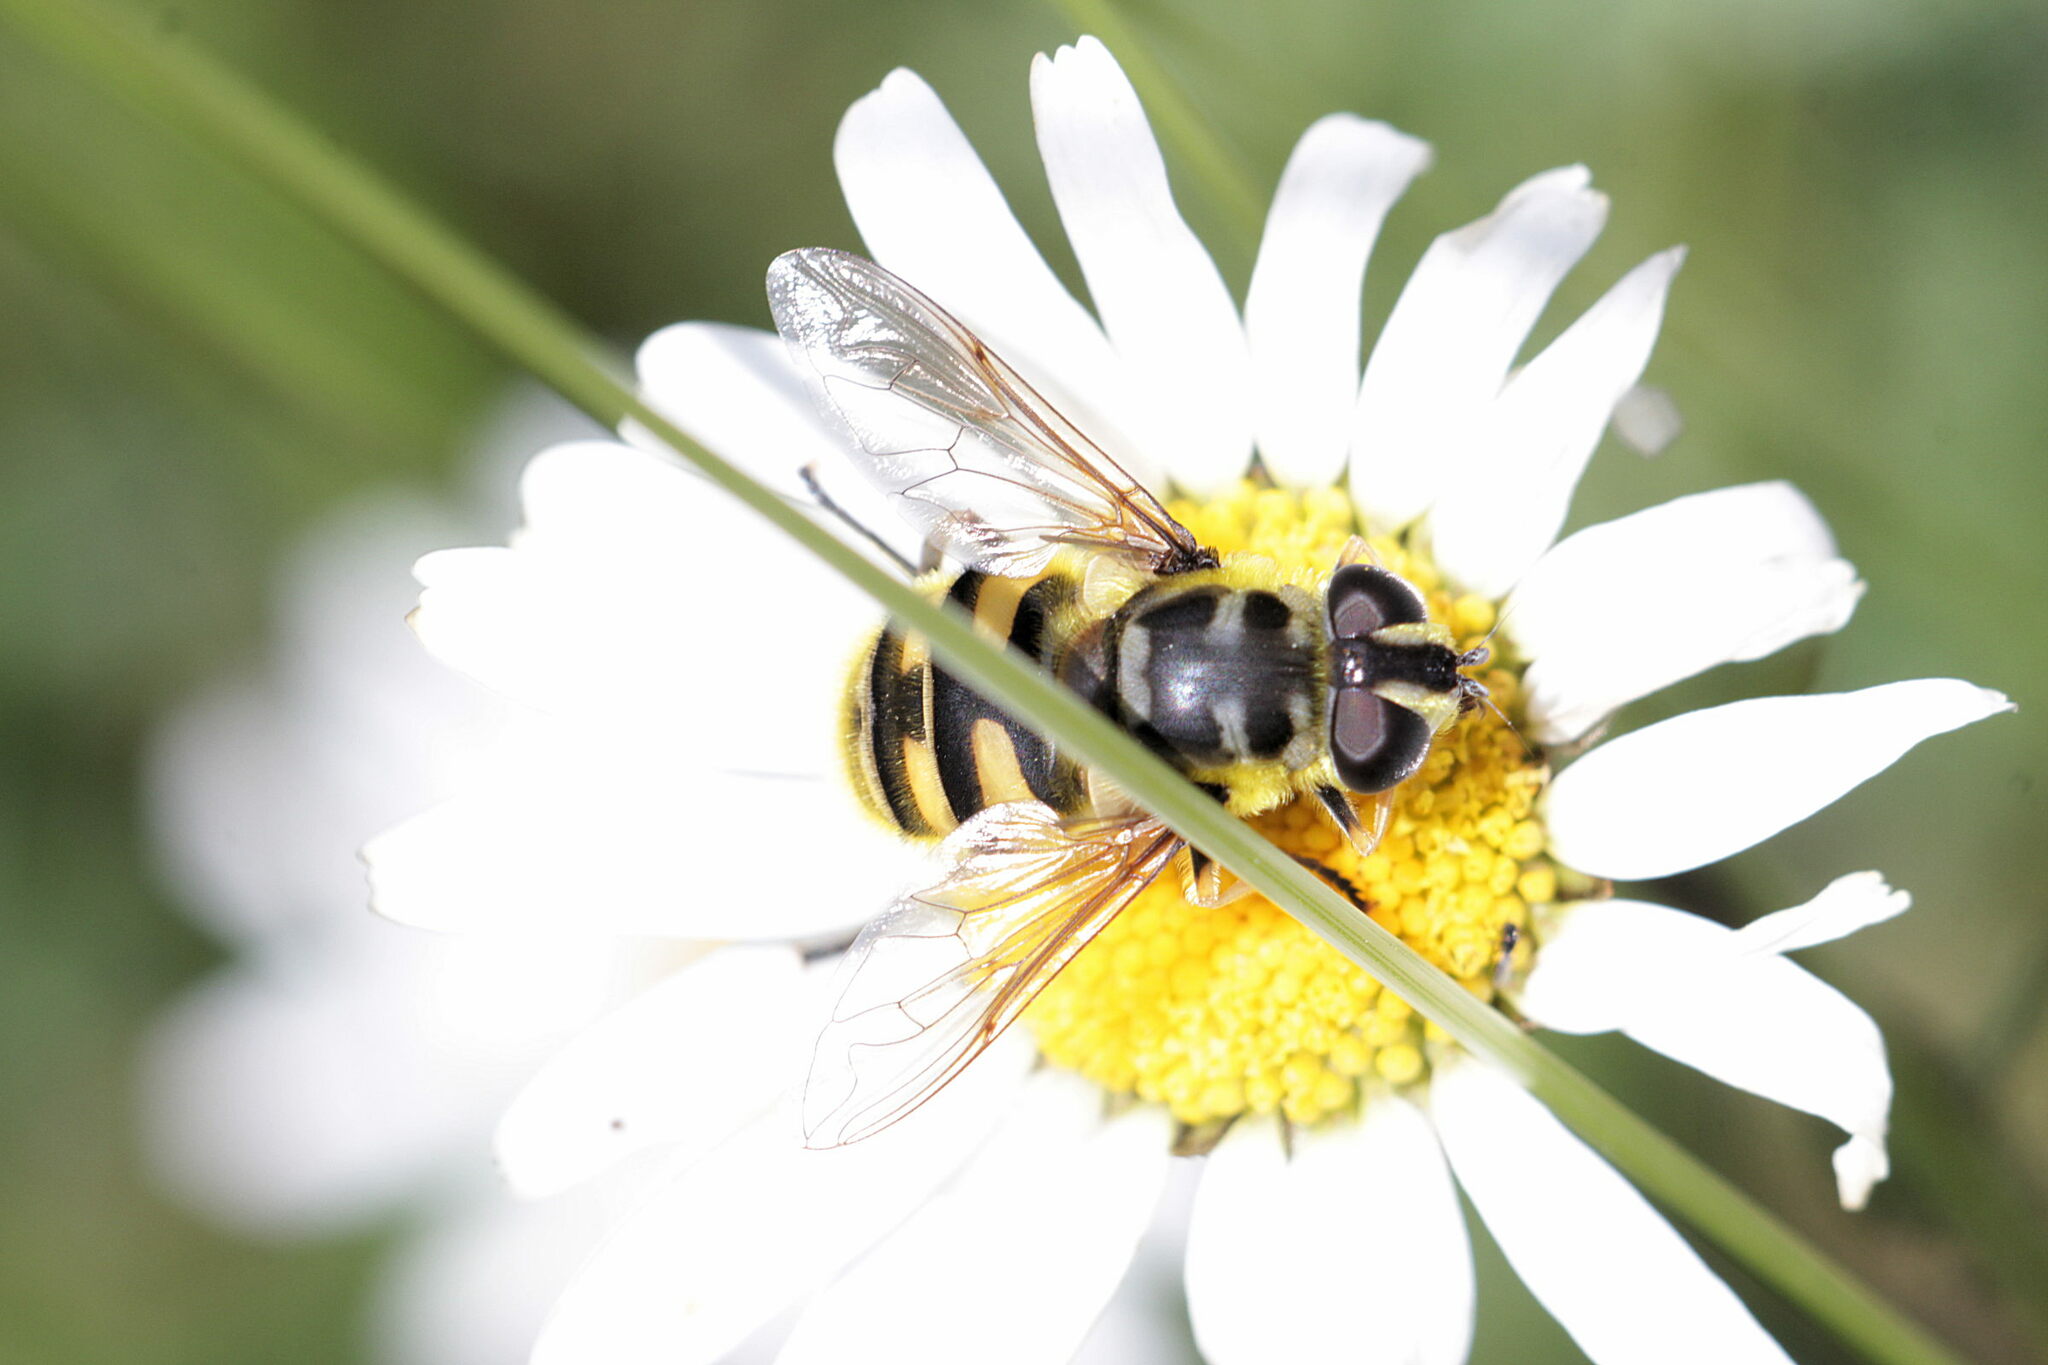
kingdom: Animalia
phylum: Arthropoda
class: Insecta
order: Diptera
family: Syrphidae
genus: Myathropa
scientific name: Myathropa florea
